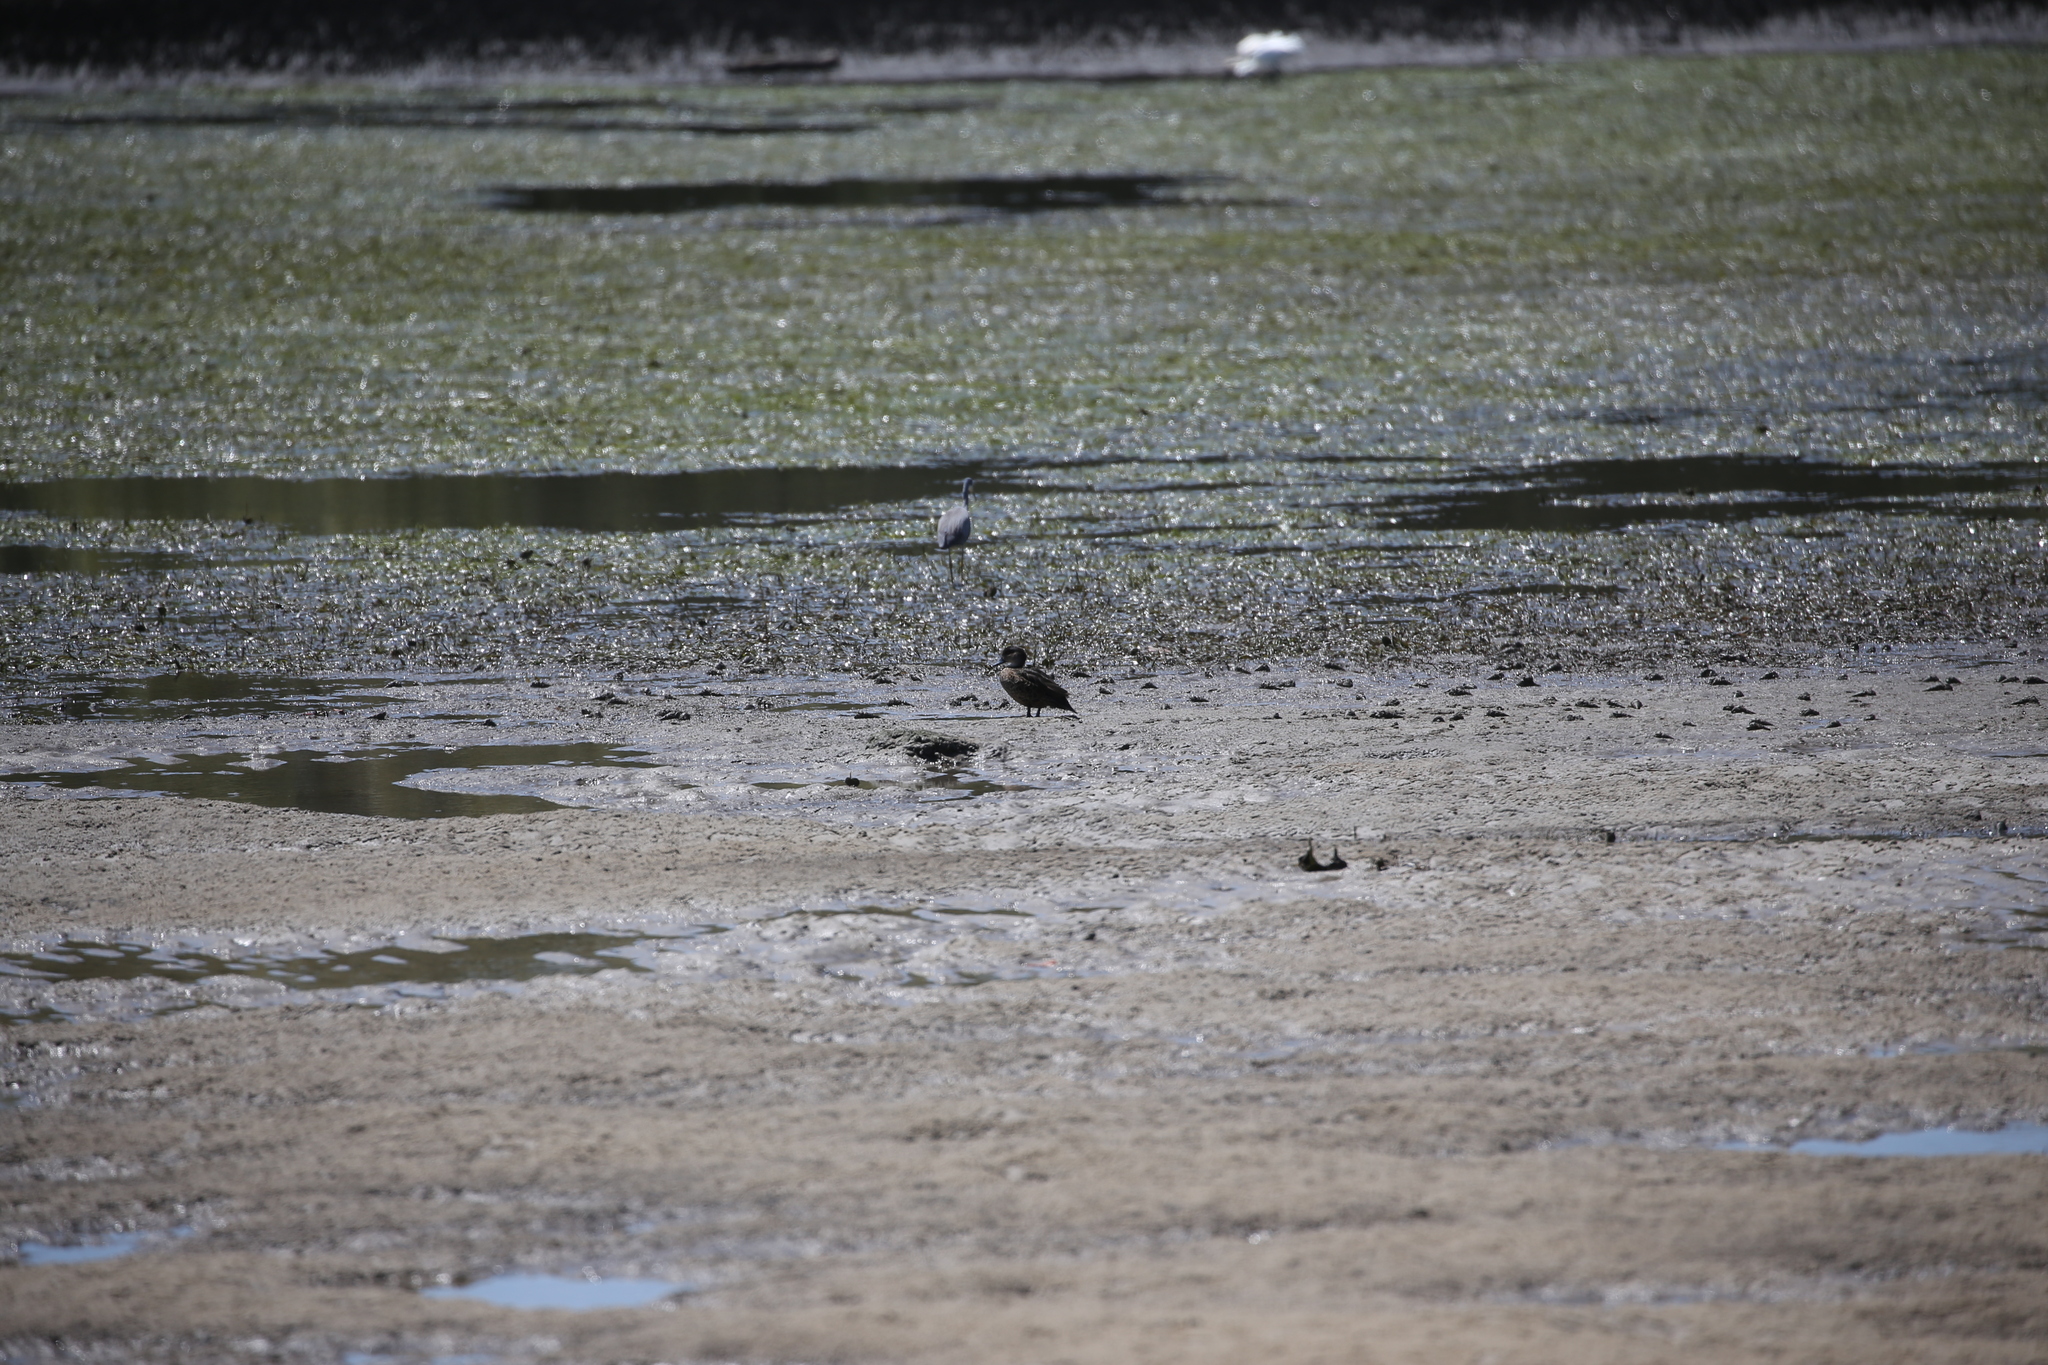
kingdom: Animalia
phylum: Chordata
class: Aves
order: Anseriformes
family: Anatidae
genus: Anas
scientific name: Anas gracilis
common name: Grey teal
